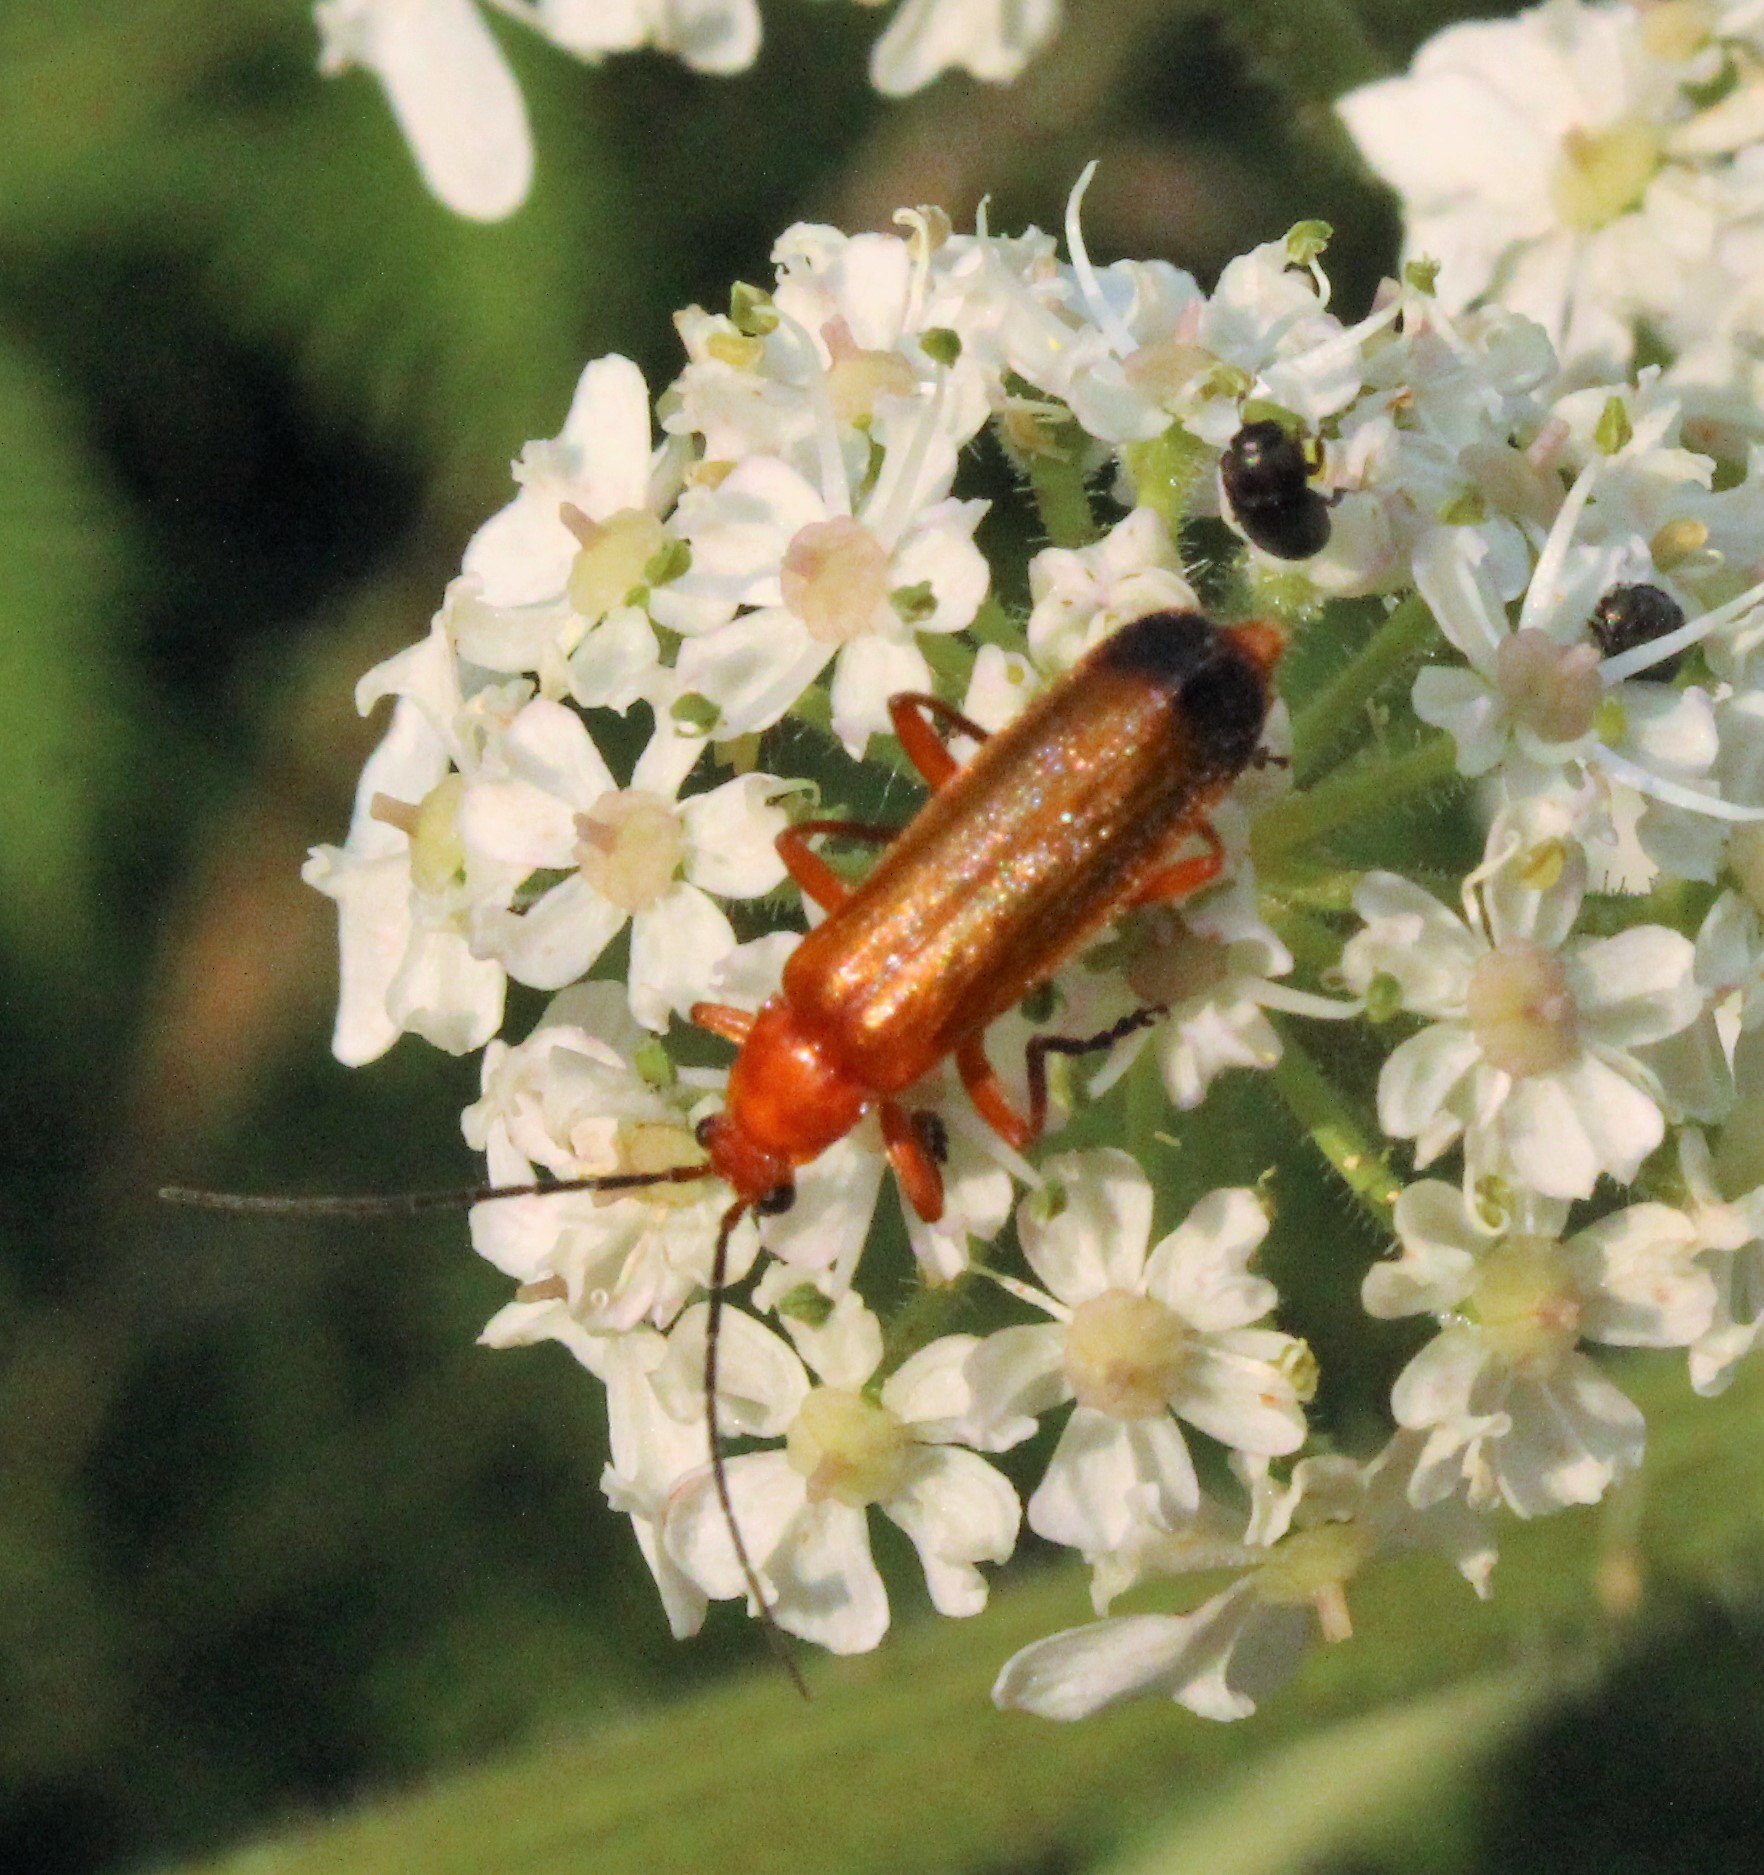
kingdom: Animalia
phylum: Arthropoda
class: Insecta
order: Coleoptera
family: Cantharidae
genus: Rhagonycha
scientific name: Rhagonycha fulva
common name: Common red soldier beetle
